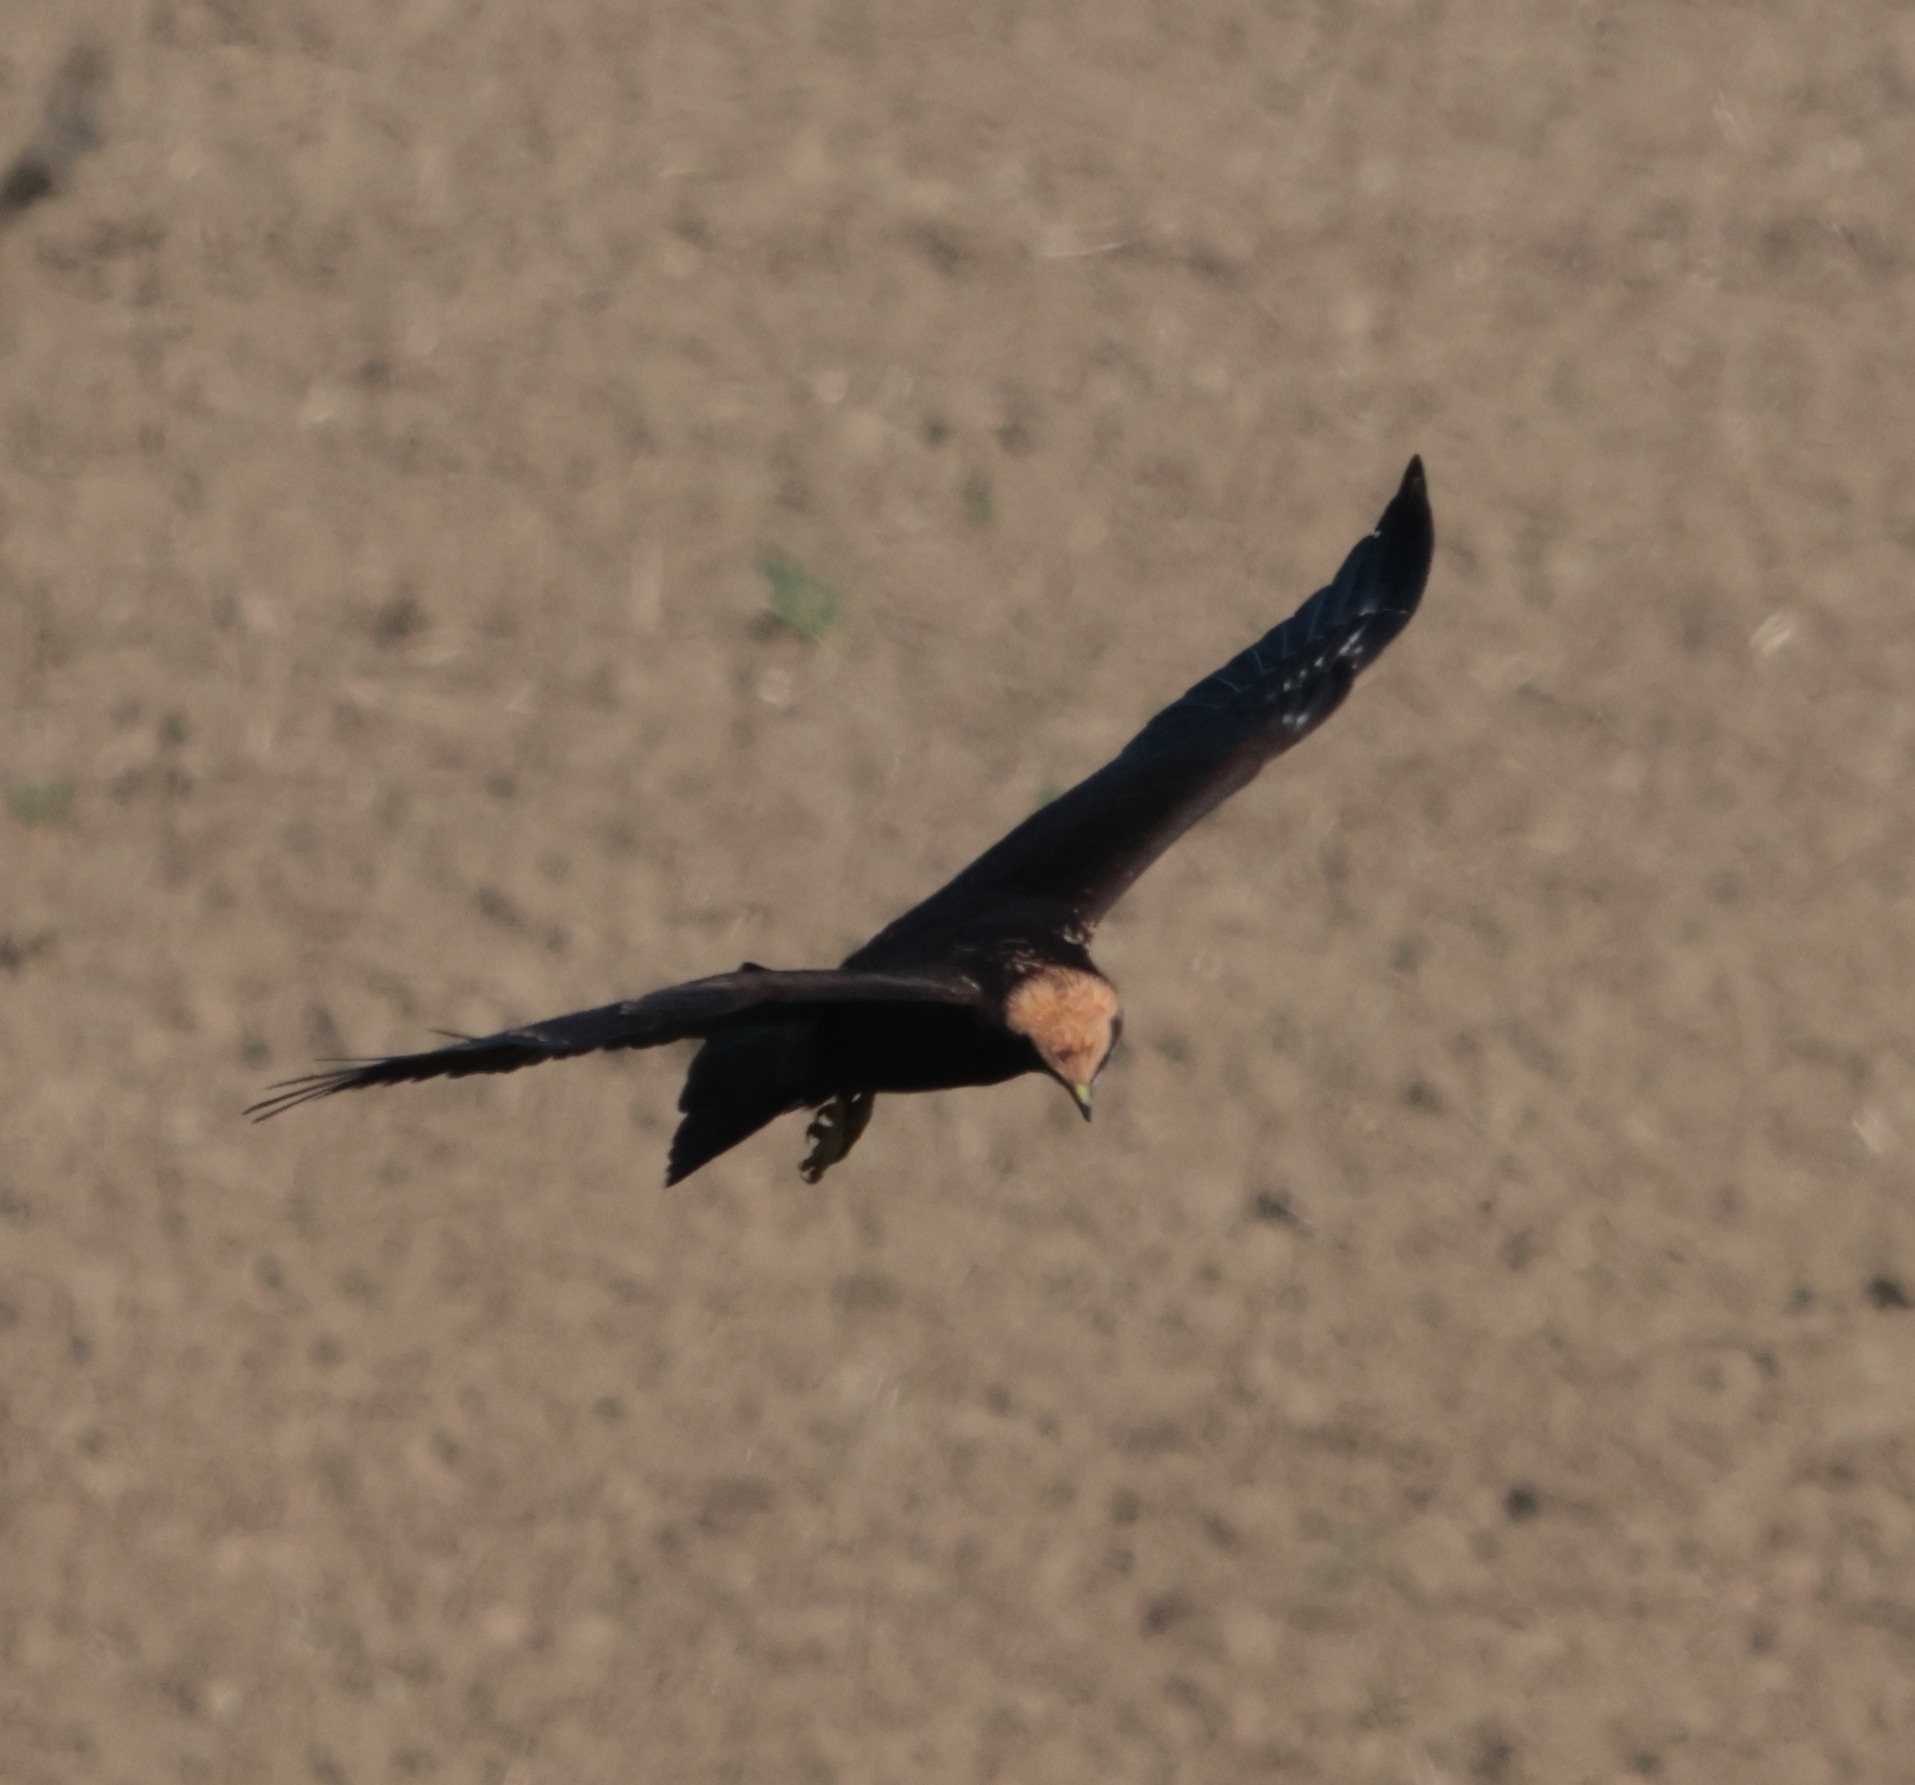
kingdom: Animalia
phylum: Chordata
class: Aves
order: Accipitriformes
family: Accipitridae
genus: Circus
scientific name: Circus aeruginosus
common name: Western marsh harrier
